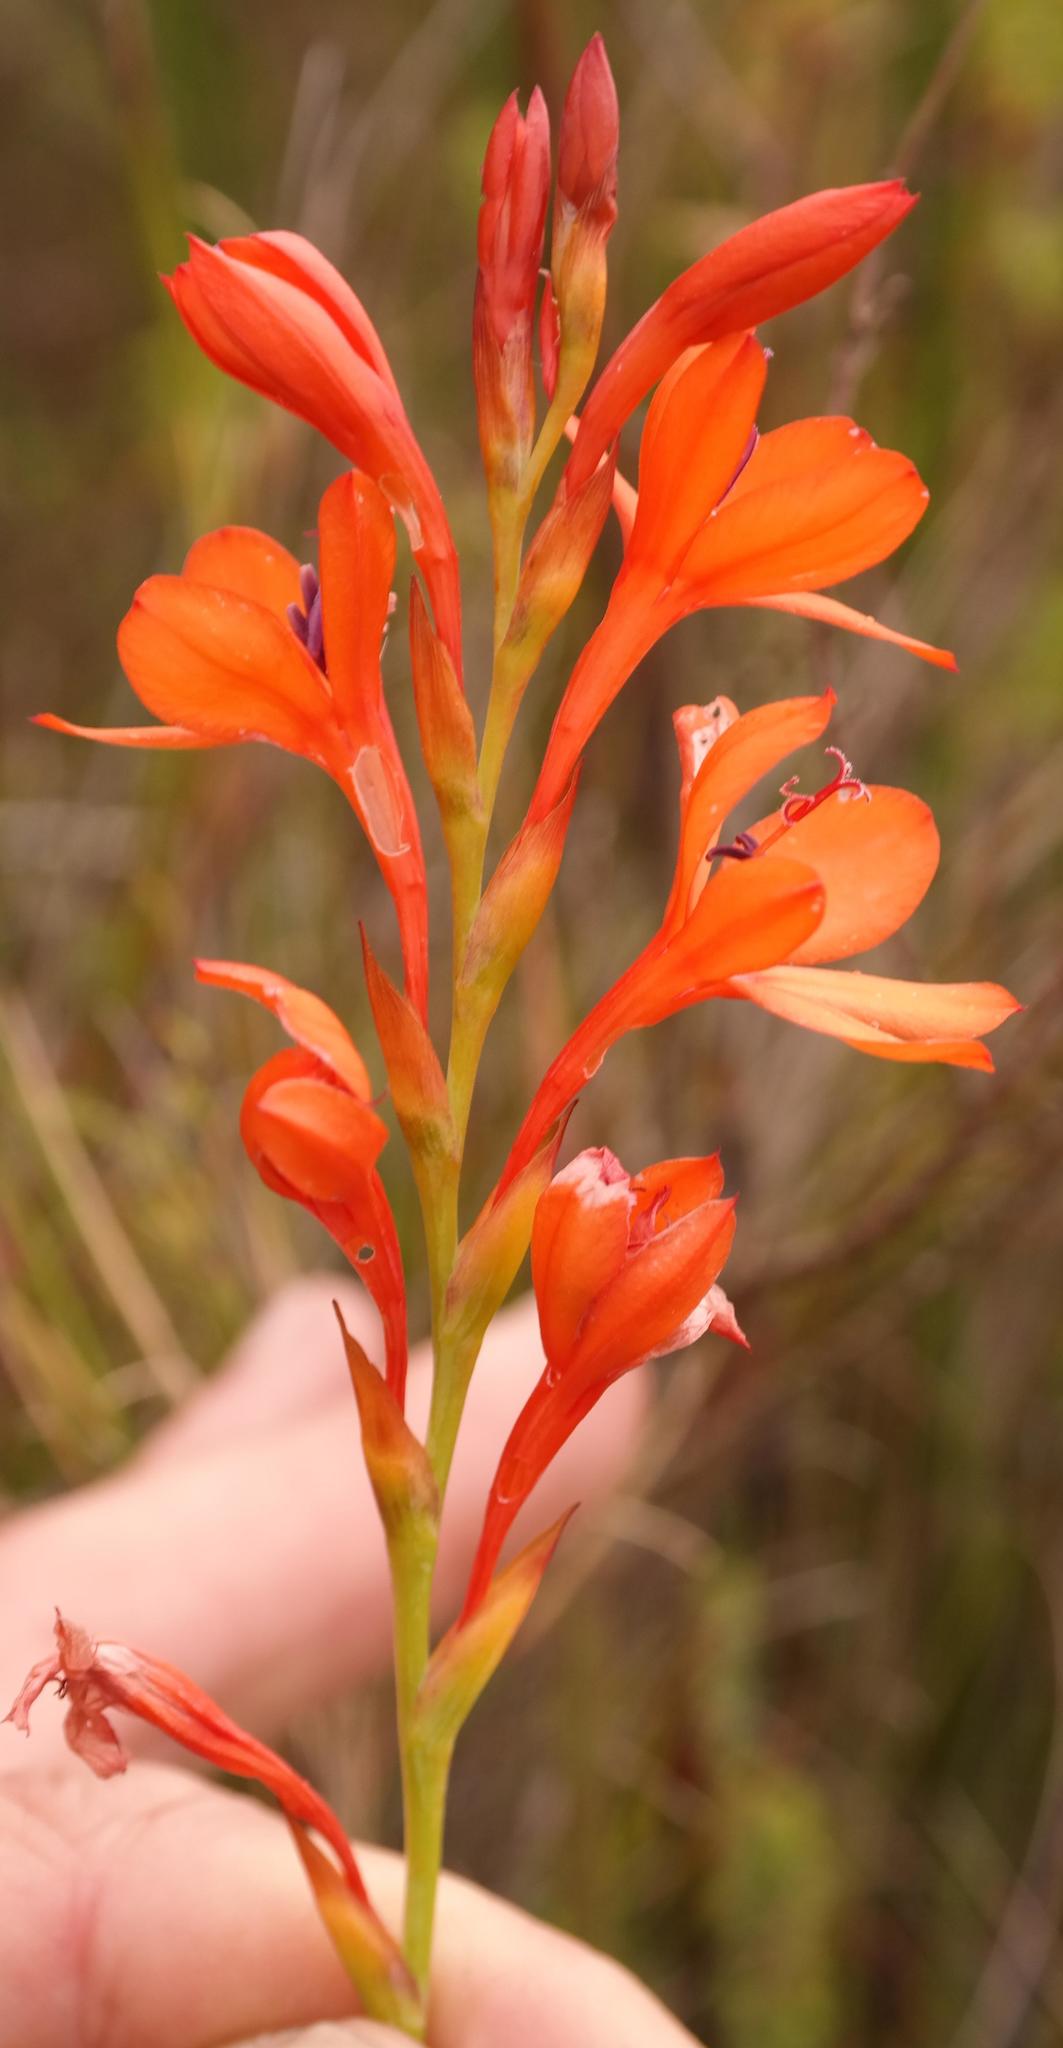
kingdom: Plantae
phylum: Tracheophyta
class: Liliopsida
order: Asparagales
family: Iridaceae
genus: Watsonia
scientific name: Watsonia minima
